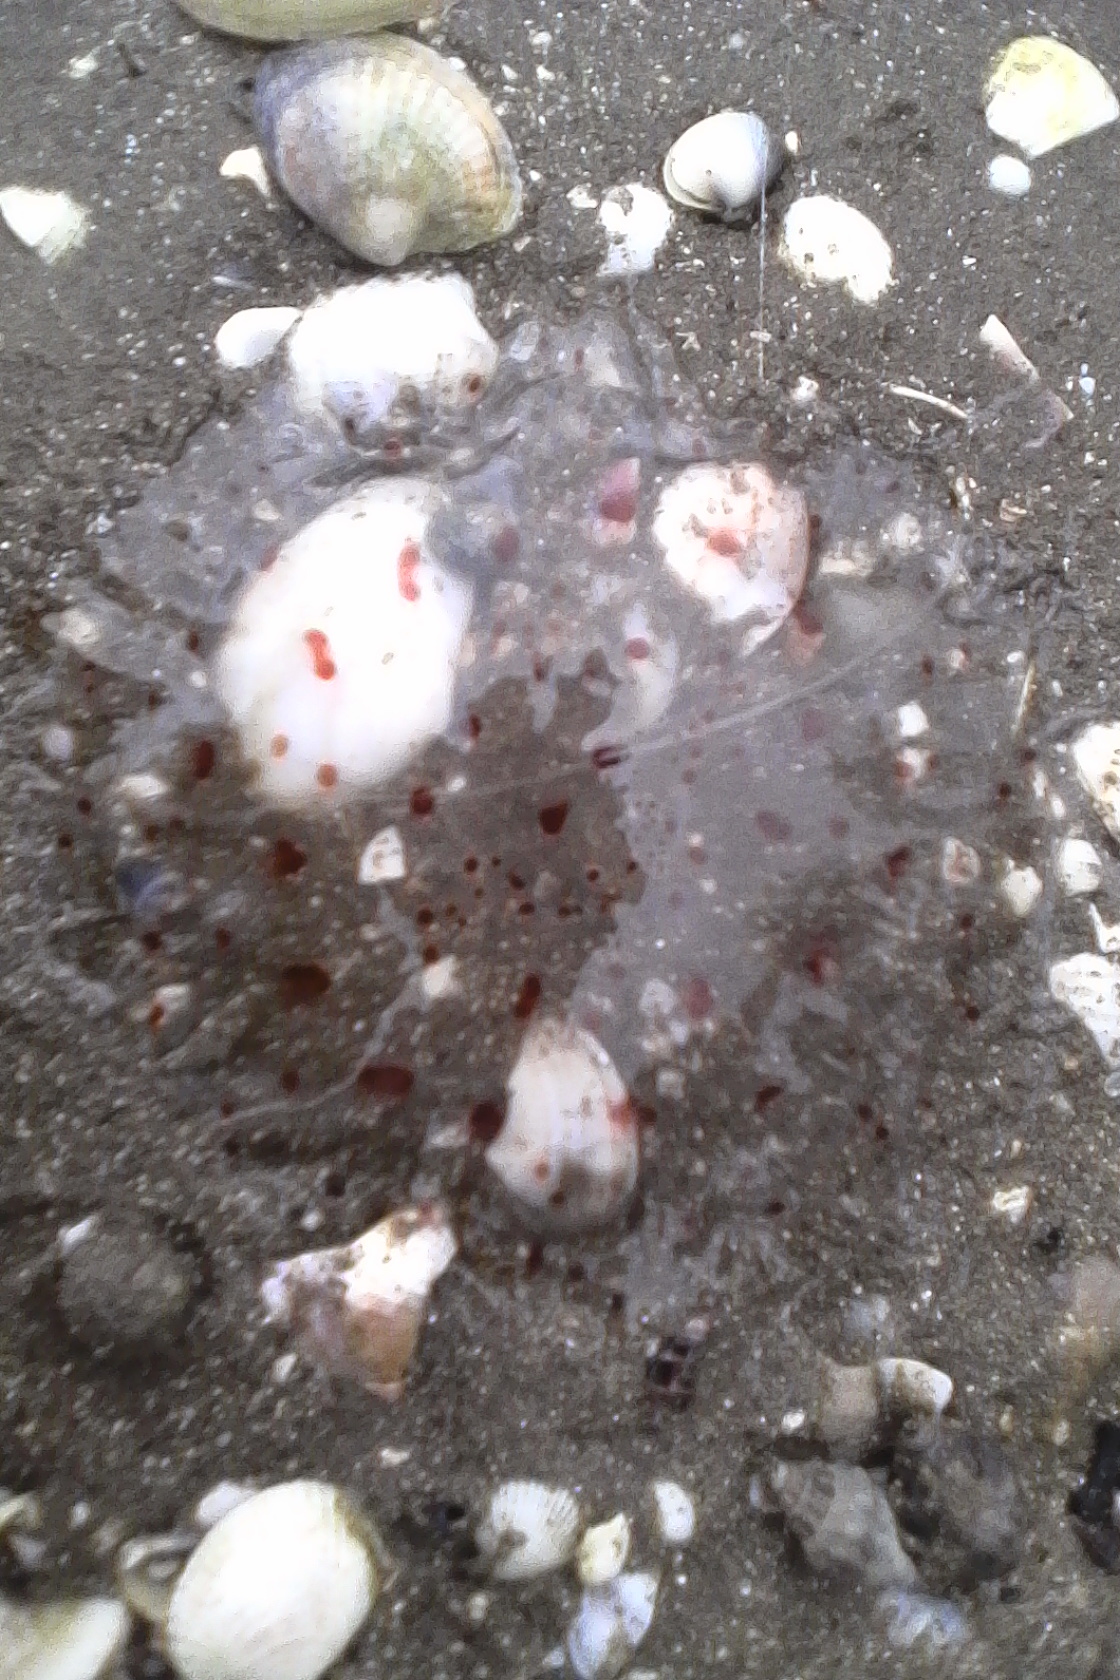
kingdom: Animalia
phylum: Cnidaria
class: Scyphozoa
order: Semaeostomeae
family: Cyaneidae
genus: Desmonema
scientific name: Desmonema gaudichaudi
